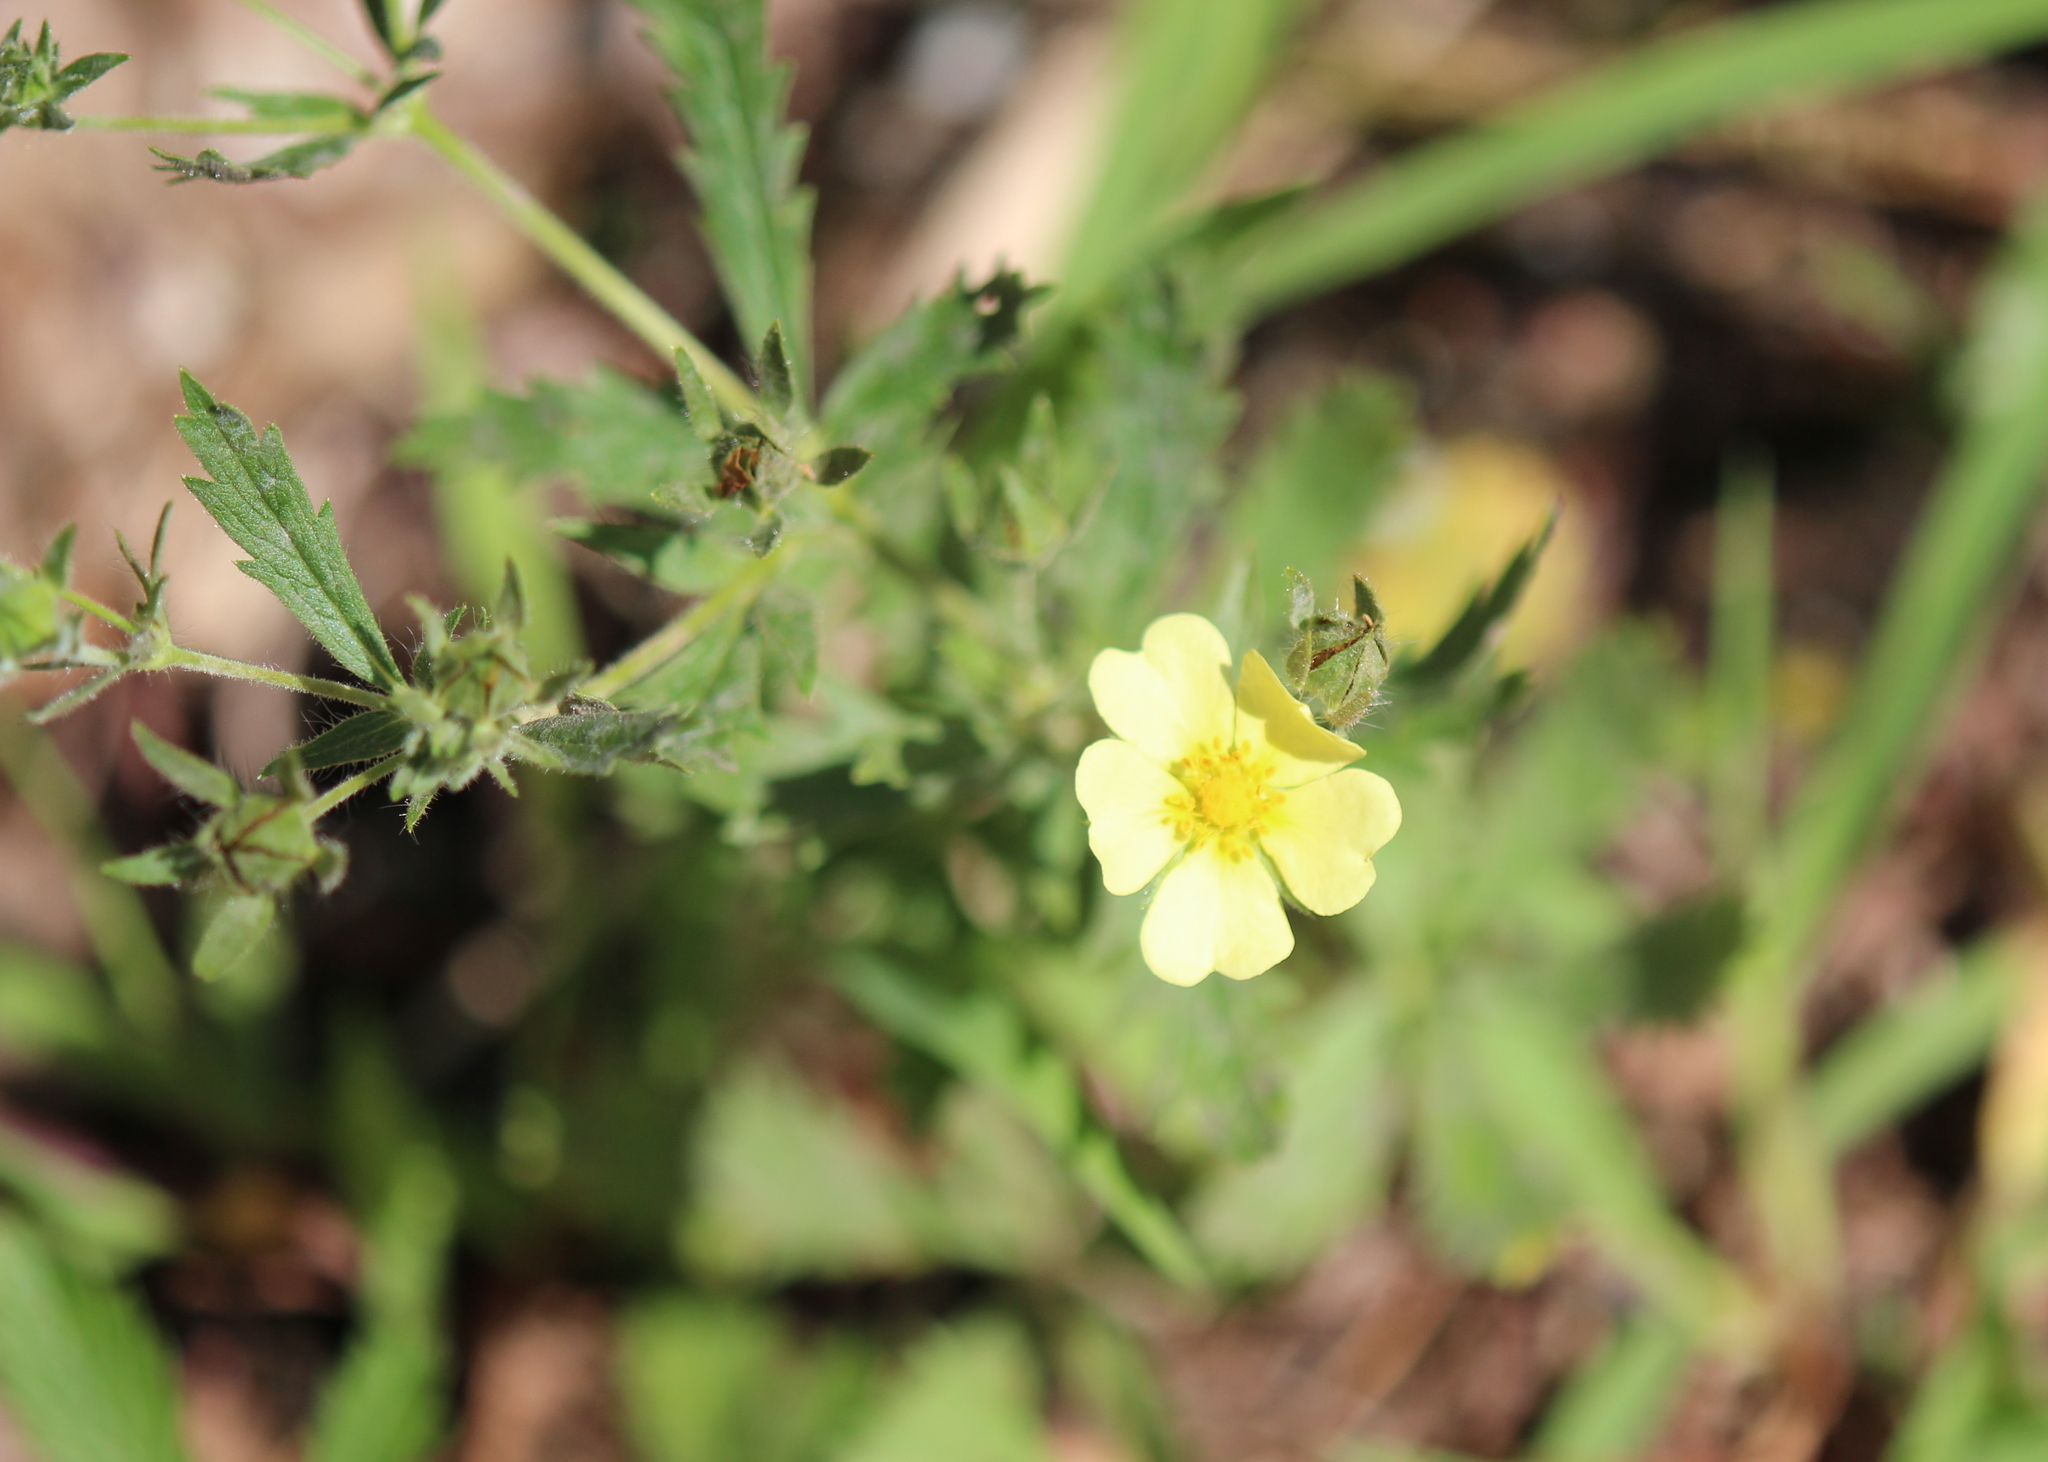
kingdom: Plantae
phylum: Tracheophyta
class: Magnoliopsida
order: Rosales
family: Rosaceae
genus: Potentilla
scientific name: Potentilla recta
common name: Sulphur cinquefoil
